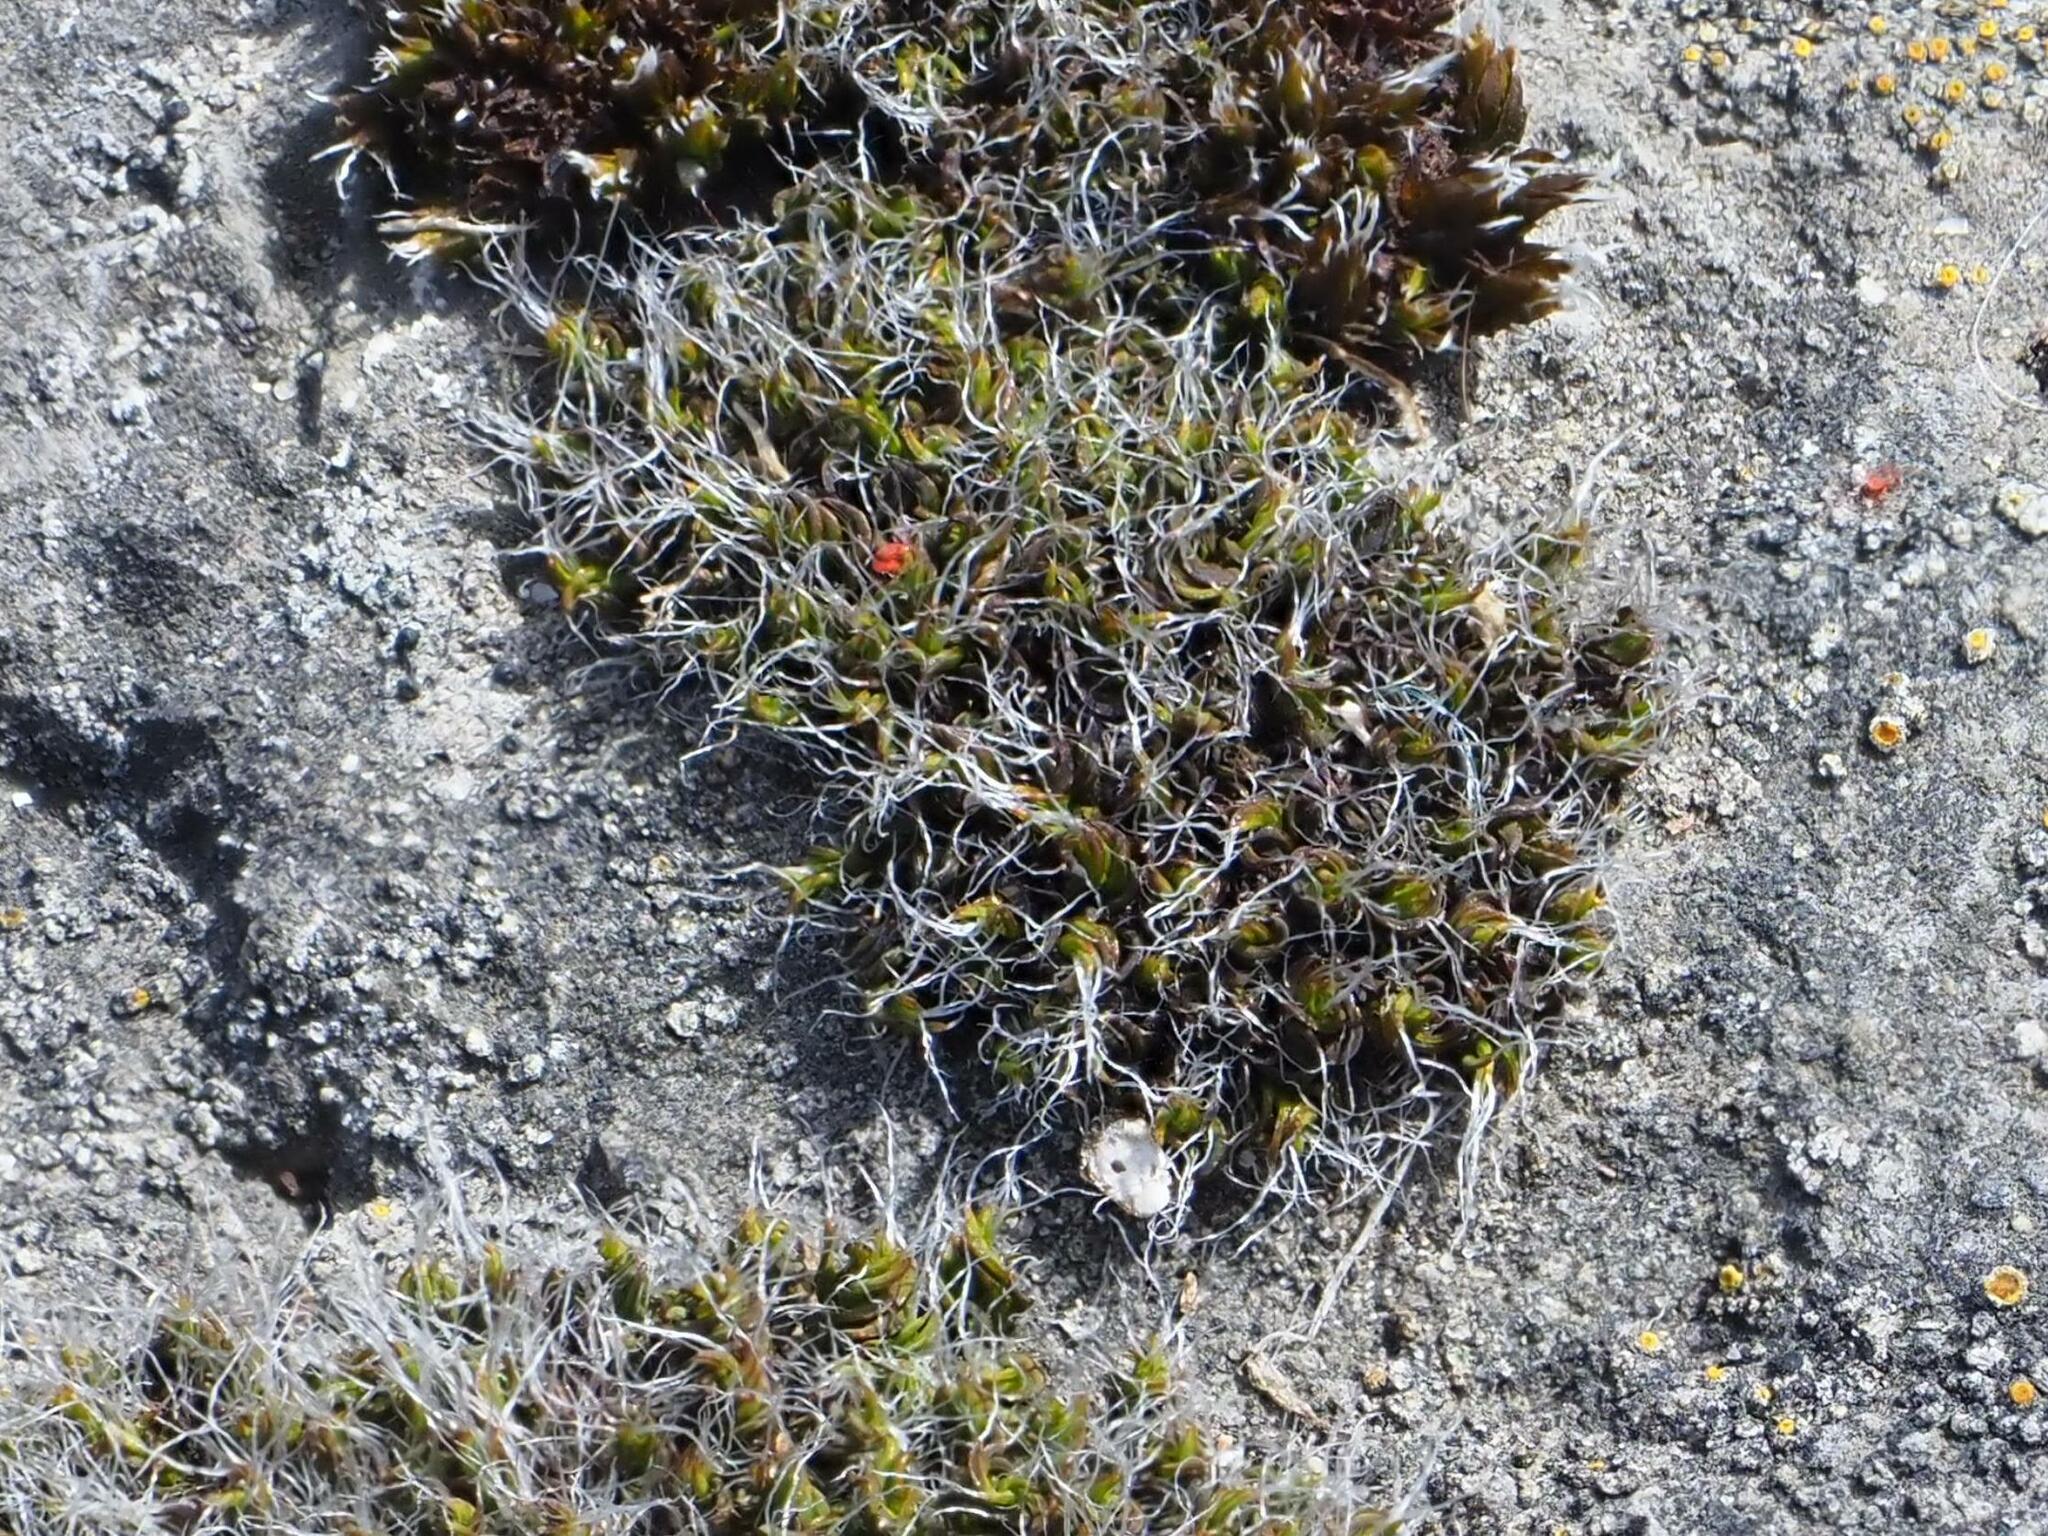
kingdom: Plantae
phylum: Bryophyta
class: Bryopsida
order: Grimmiales
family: Grimmiaceae
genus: Grimmia
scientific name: Grimmia pulvinata
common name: Grey-cushioned grimmia
